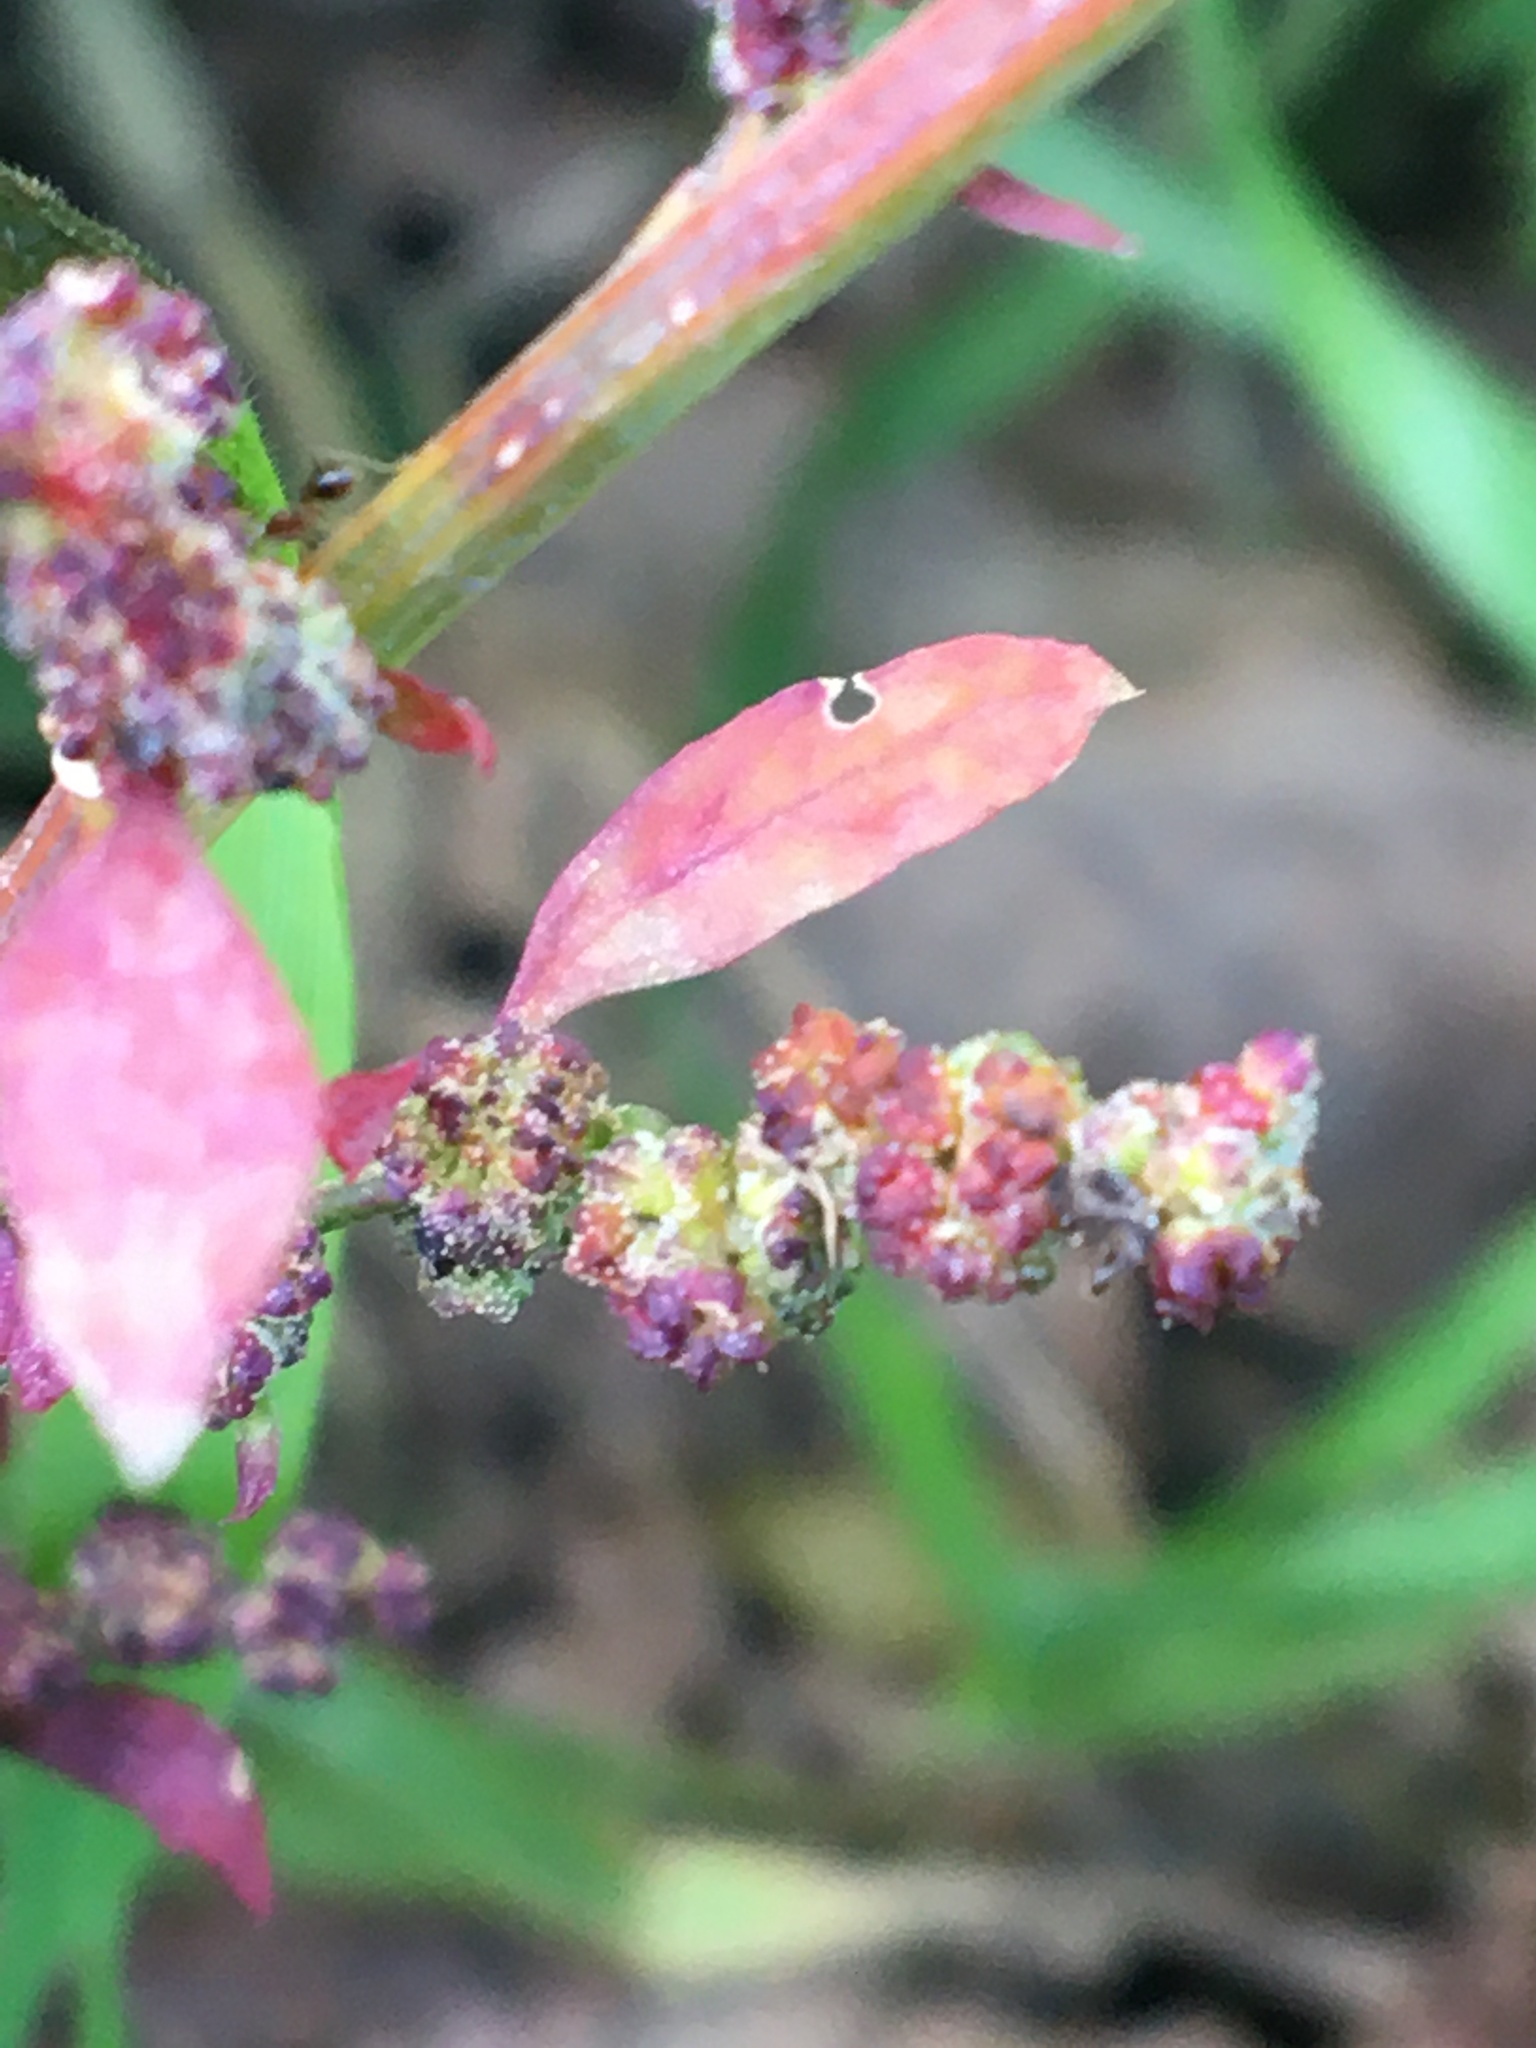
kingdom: Plantae
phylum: Tracheophyta
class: Magnoliopsida
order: Caryophyllales
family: Amaranthaceae
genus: Chenopodium
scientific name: Chenopodium album
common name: Fat-hen
